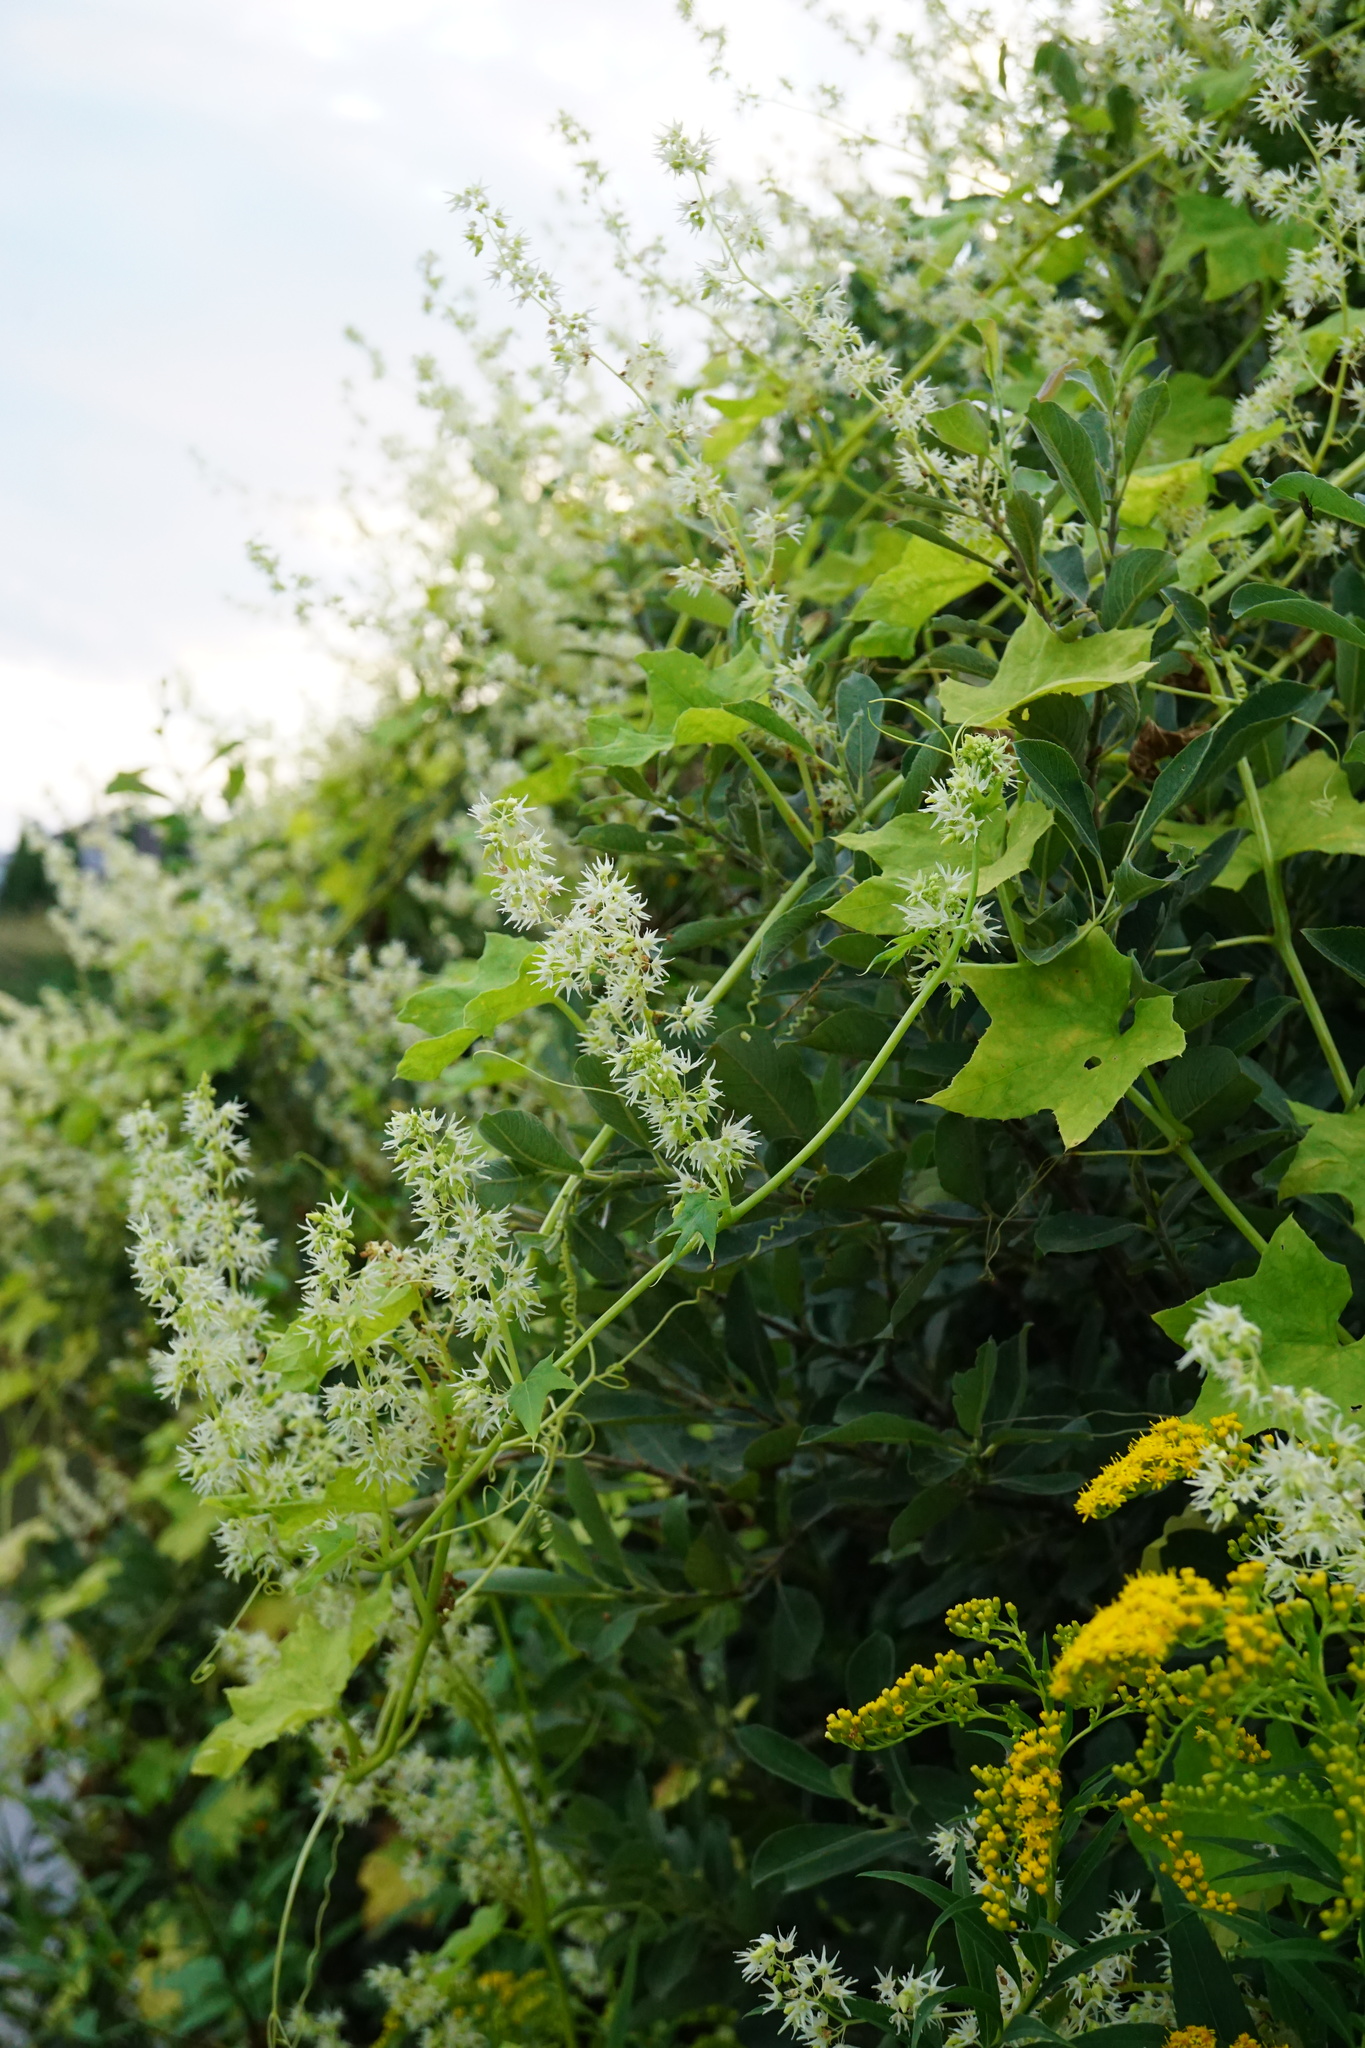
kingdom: Plantae
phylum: Tracheophyta
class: Magnoliopsida
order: Cucurbitales
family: Cucurbitaceae
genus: Echinocystis
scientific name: Echinocystis lobata
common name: Wild cucumber
